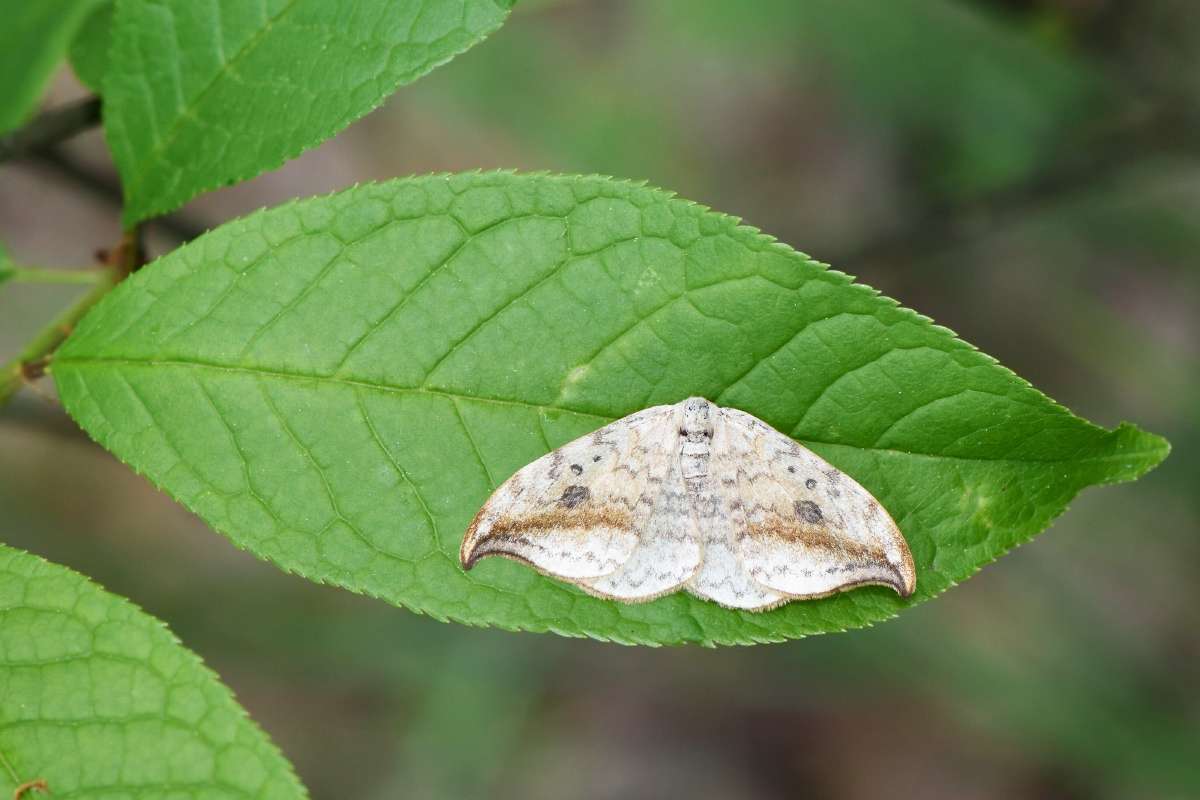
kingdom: Animalia
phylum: Arthropoda
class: Insecta
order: Lepidoptera
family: Drepanidae
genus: Drepana
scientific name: Drepana falcataria
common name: Pebble hook-tip
